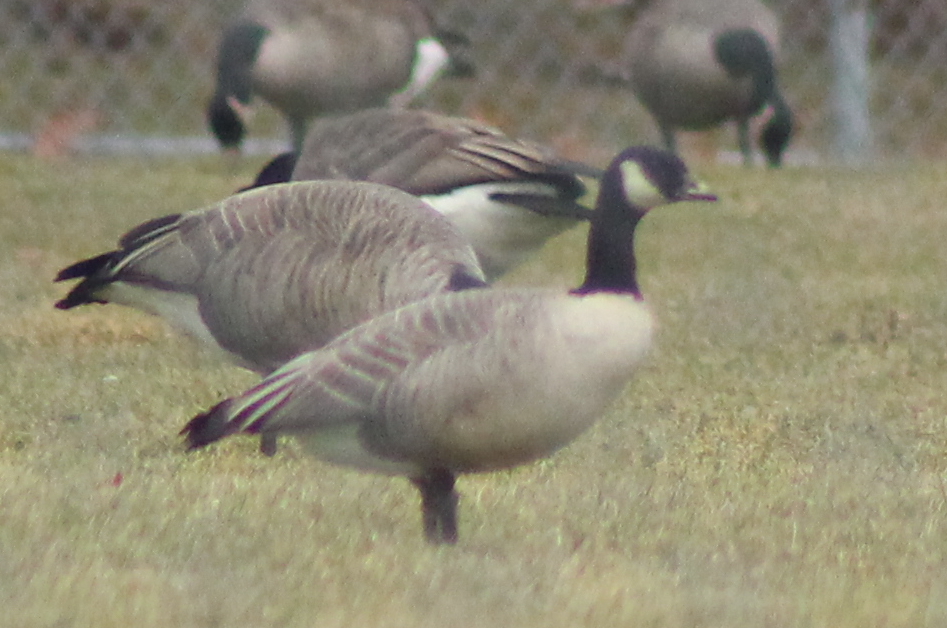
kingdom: Animalia
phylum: Chordata
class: Aves
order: Anseriformes
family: Anatidae
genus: Branta
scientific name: Branta hutchinsii
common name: Cackling goose
